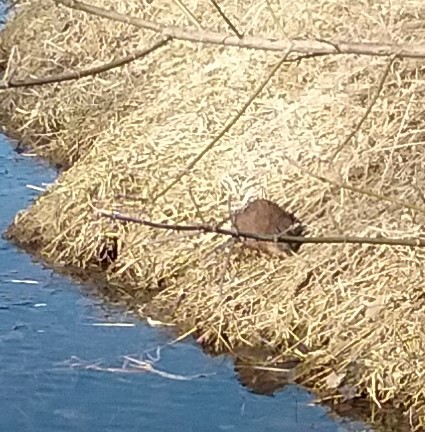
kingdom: Animalia
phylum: Chordata
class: Mammalia
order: Rodentia
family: Cricetidae
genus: Ondatra
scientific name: Ondatra zibethicus
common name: Muskrat
